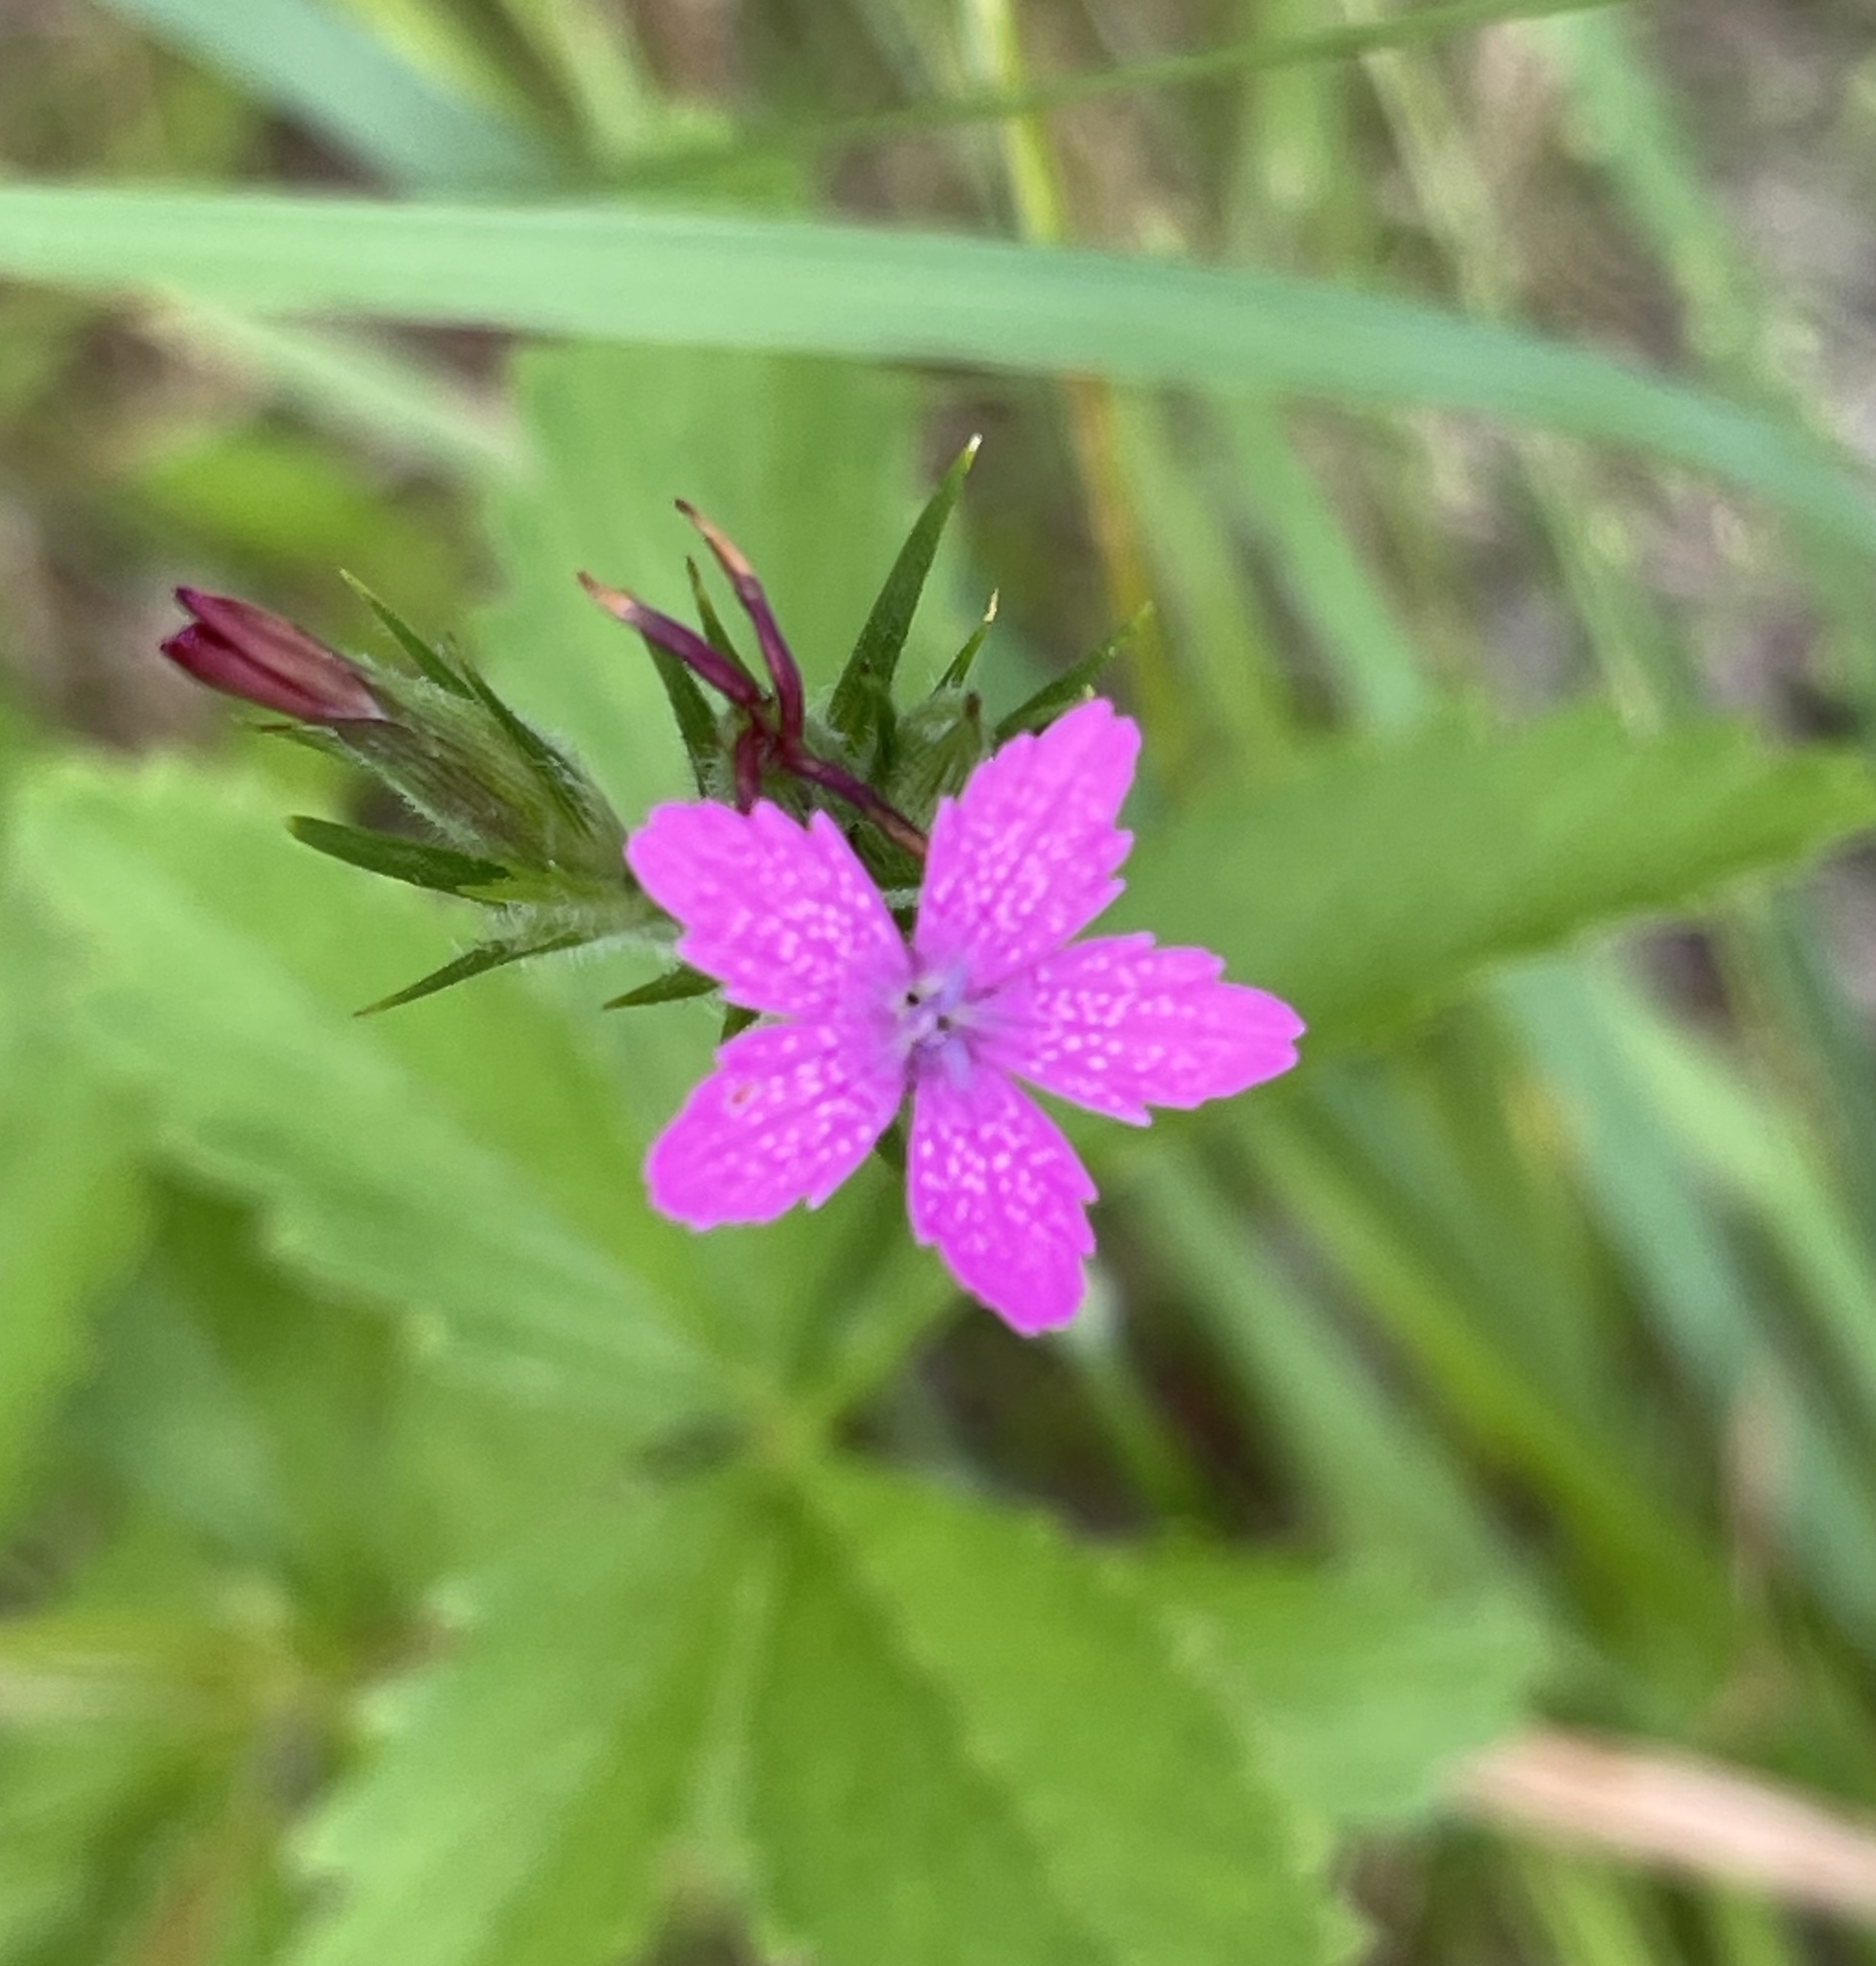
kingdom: Plantae
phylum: Tracheophyta
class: Magnoliopsida
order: Caryophyllales
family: Caryophyllaceae
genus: Dianthus
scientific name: Dianthus armeria
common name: Deptford pink
